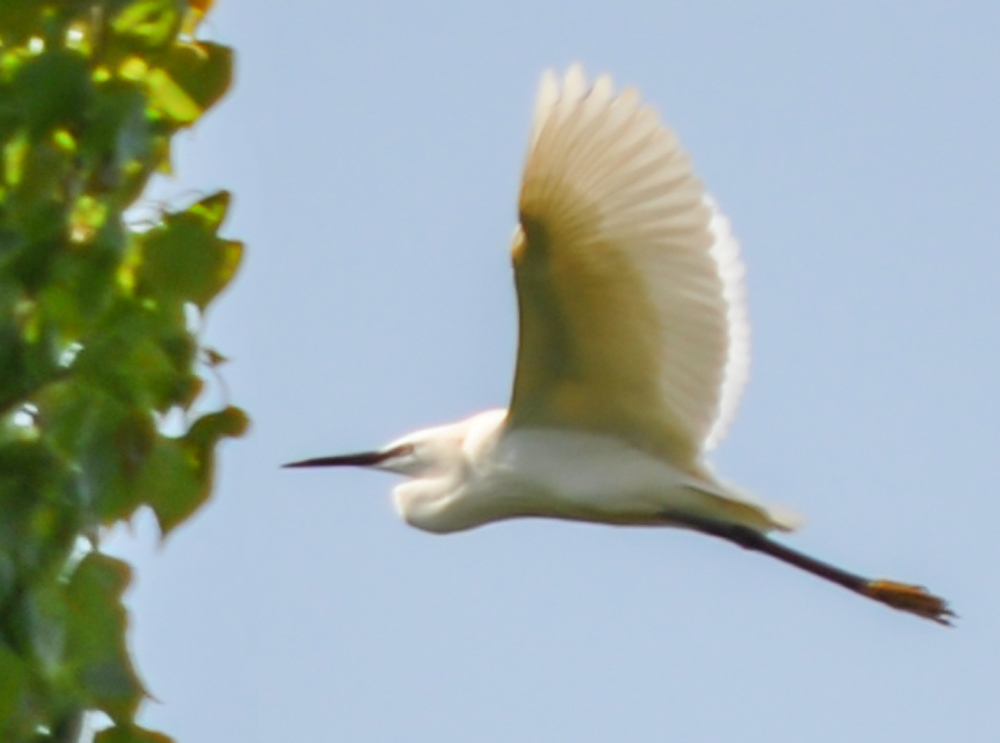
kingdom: Animalia
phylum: Chordata
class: Aves
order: Pelecaniformes
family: Ardeidae
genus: Egretta
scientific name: Egretta garzetta
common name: Little egret
